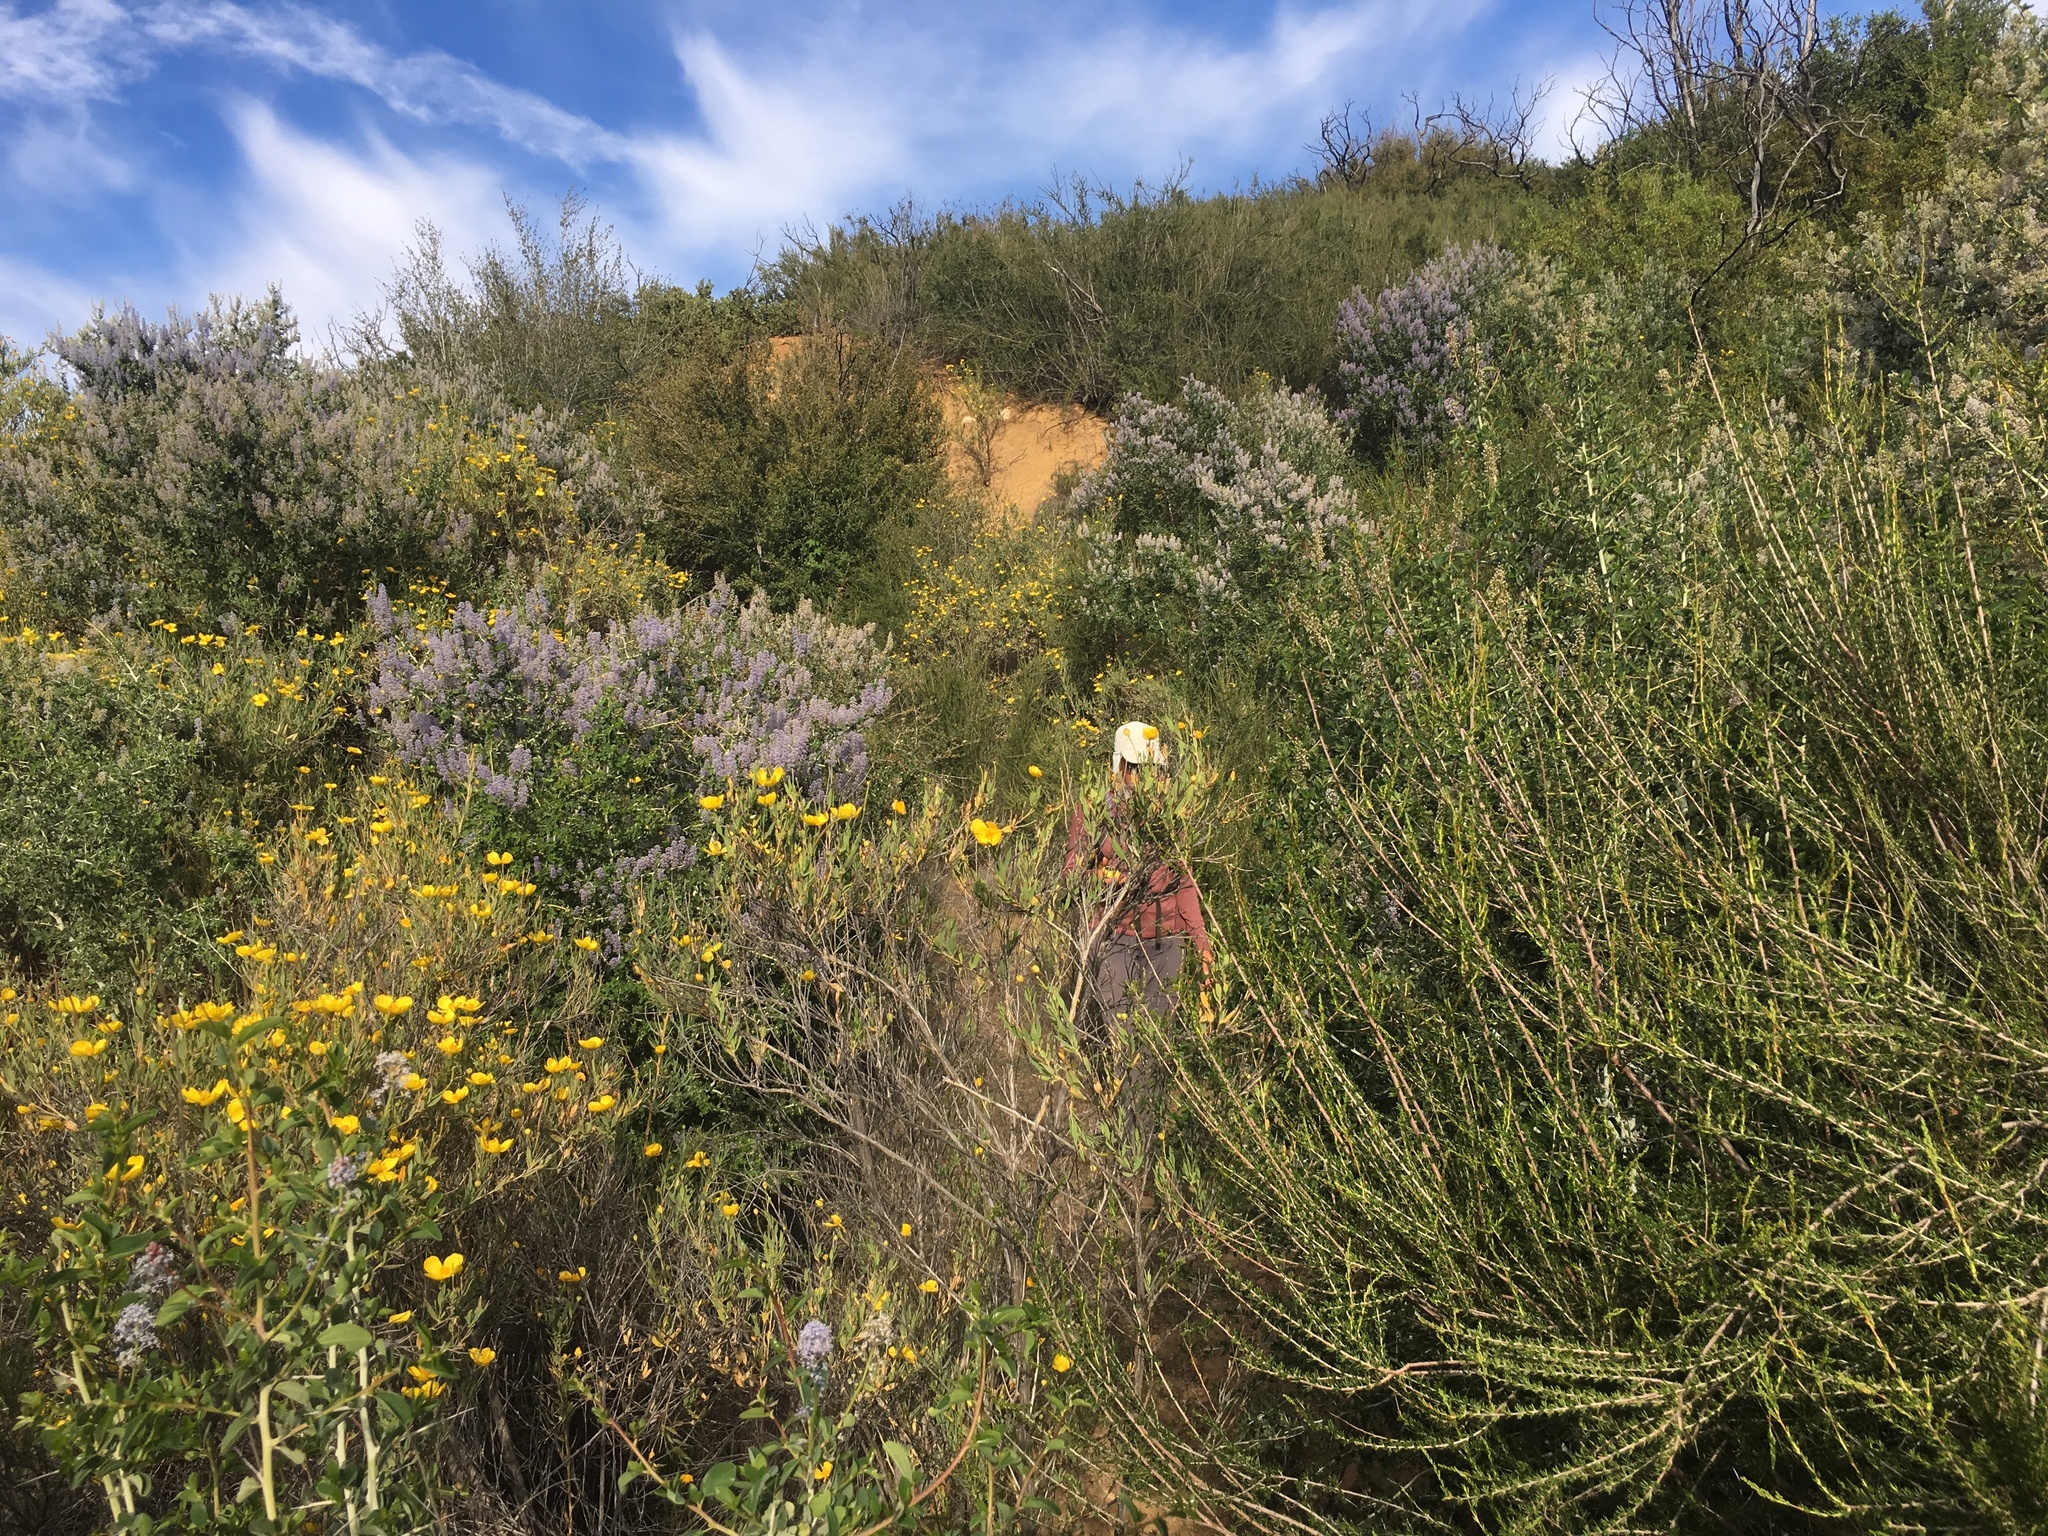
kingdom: Plantae
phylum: Tracheophyta
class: Magnoliopsida
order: Rosales
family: Rosaceae
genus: Adenostoma
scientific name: Adenostoma fasciculatum
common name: Chamise
